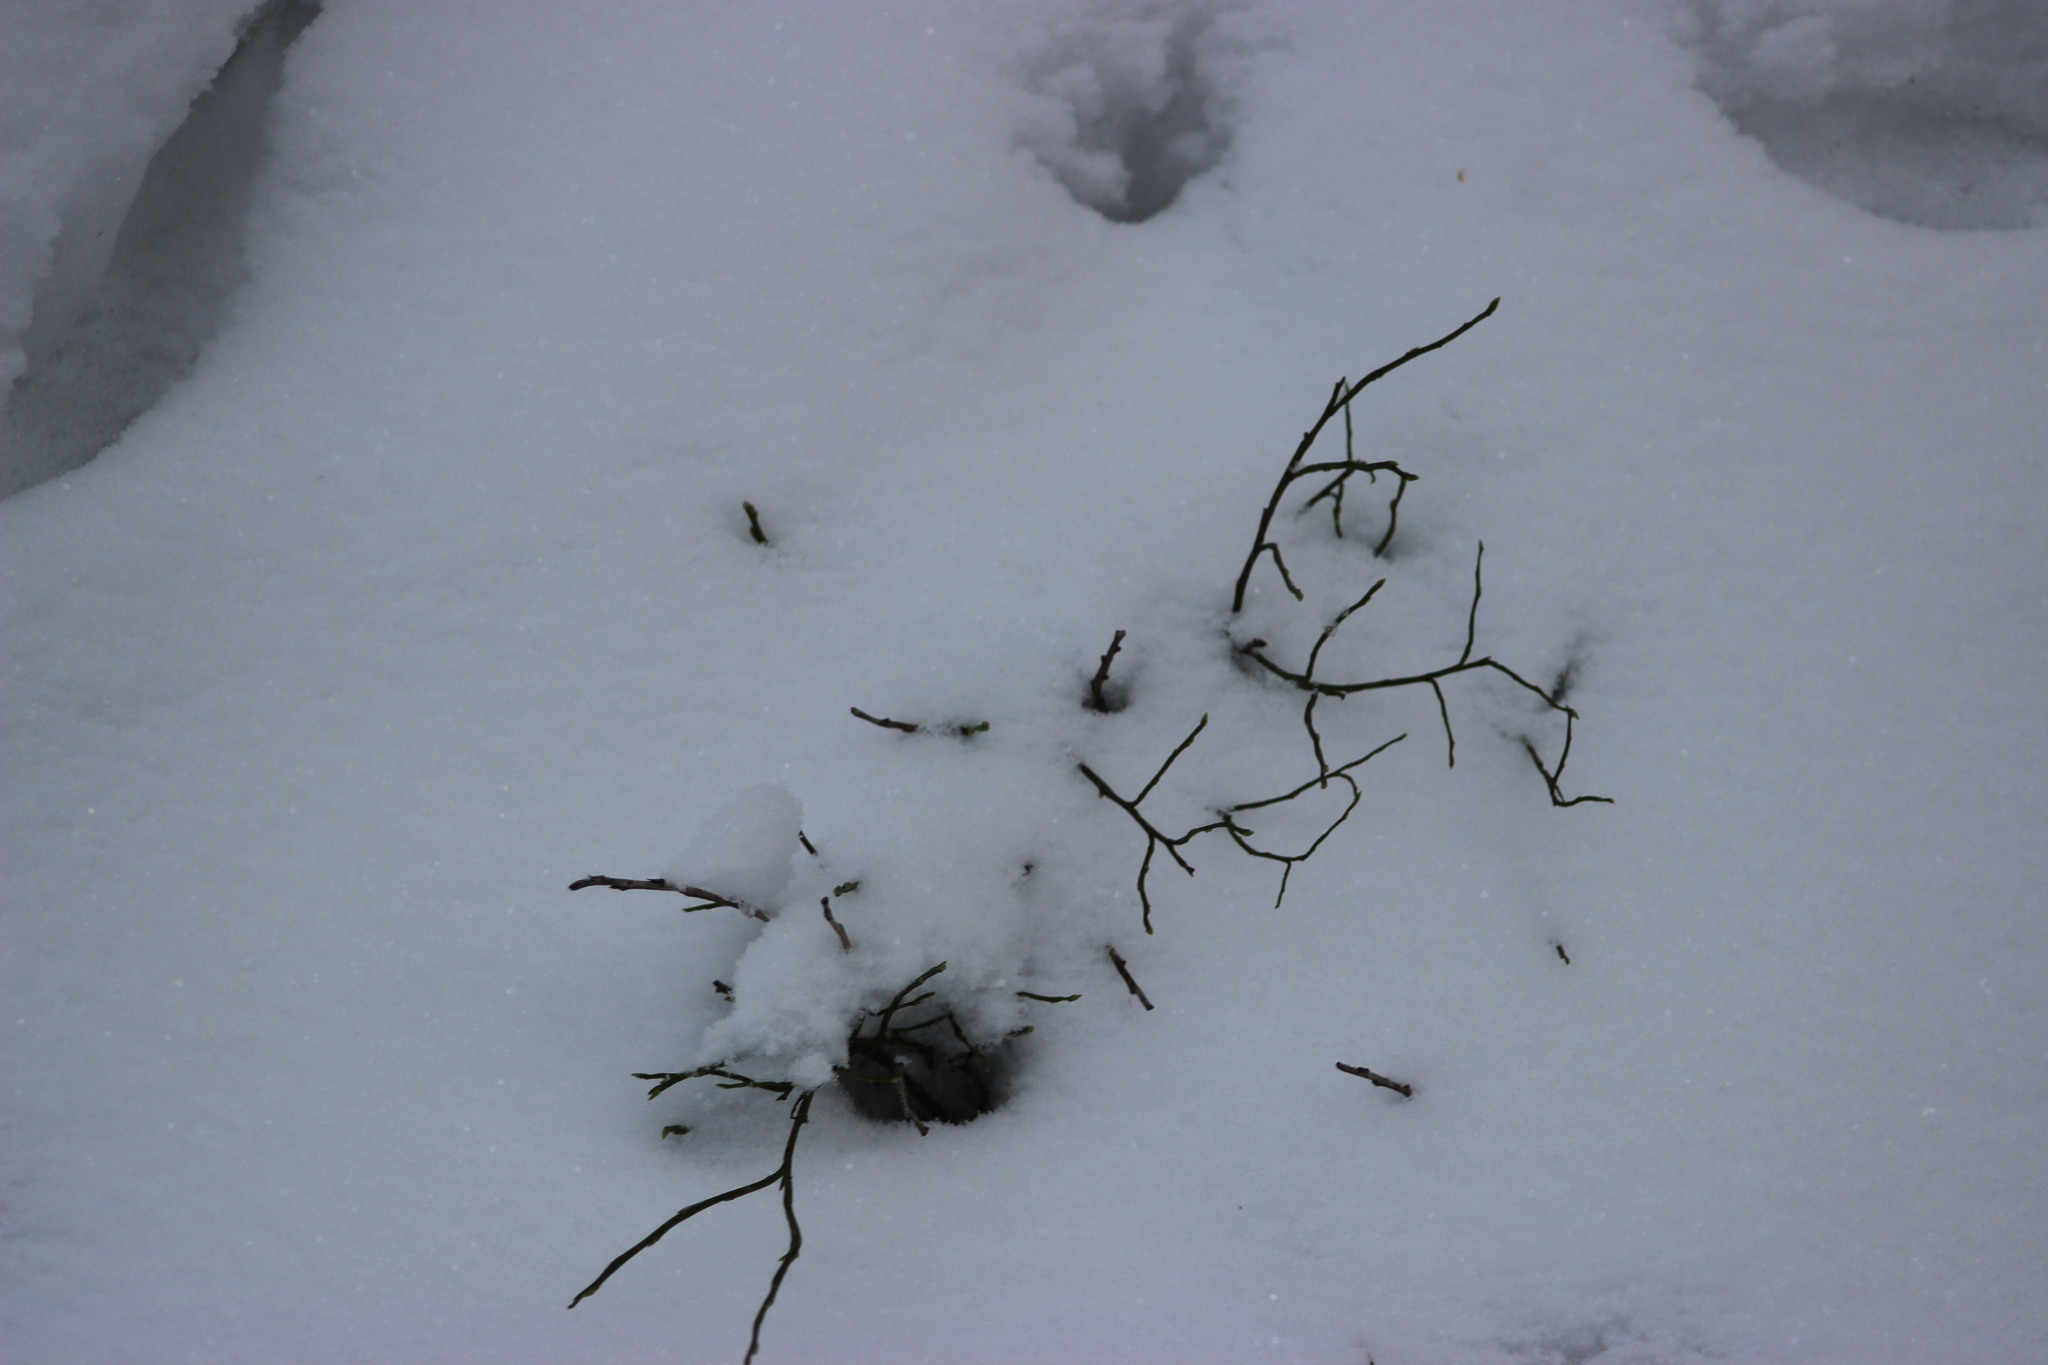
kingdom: Plantae
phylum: Tracheophyta
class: Magnoliopsida
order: Ericales
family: Ericaceae
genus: Vaccinium
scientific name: Vaccinium myrtillus
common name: Bilberry
